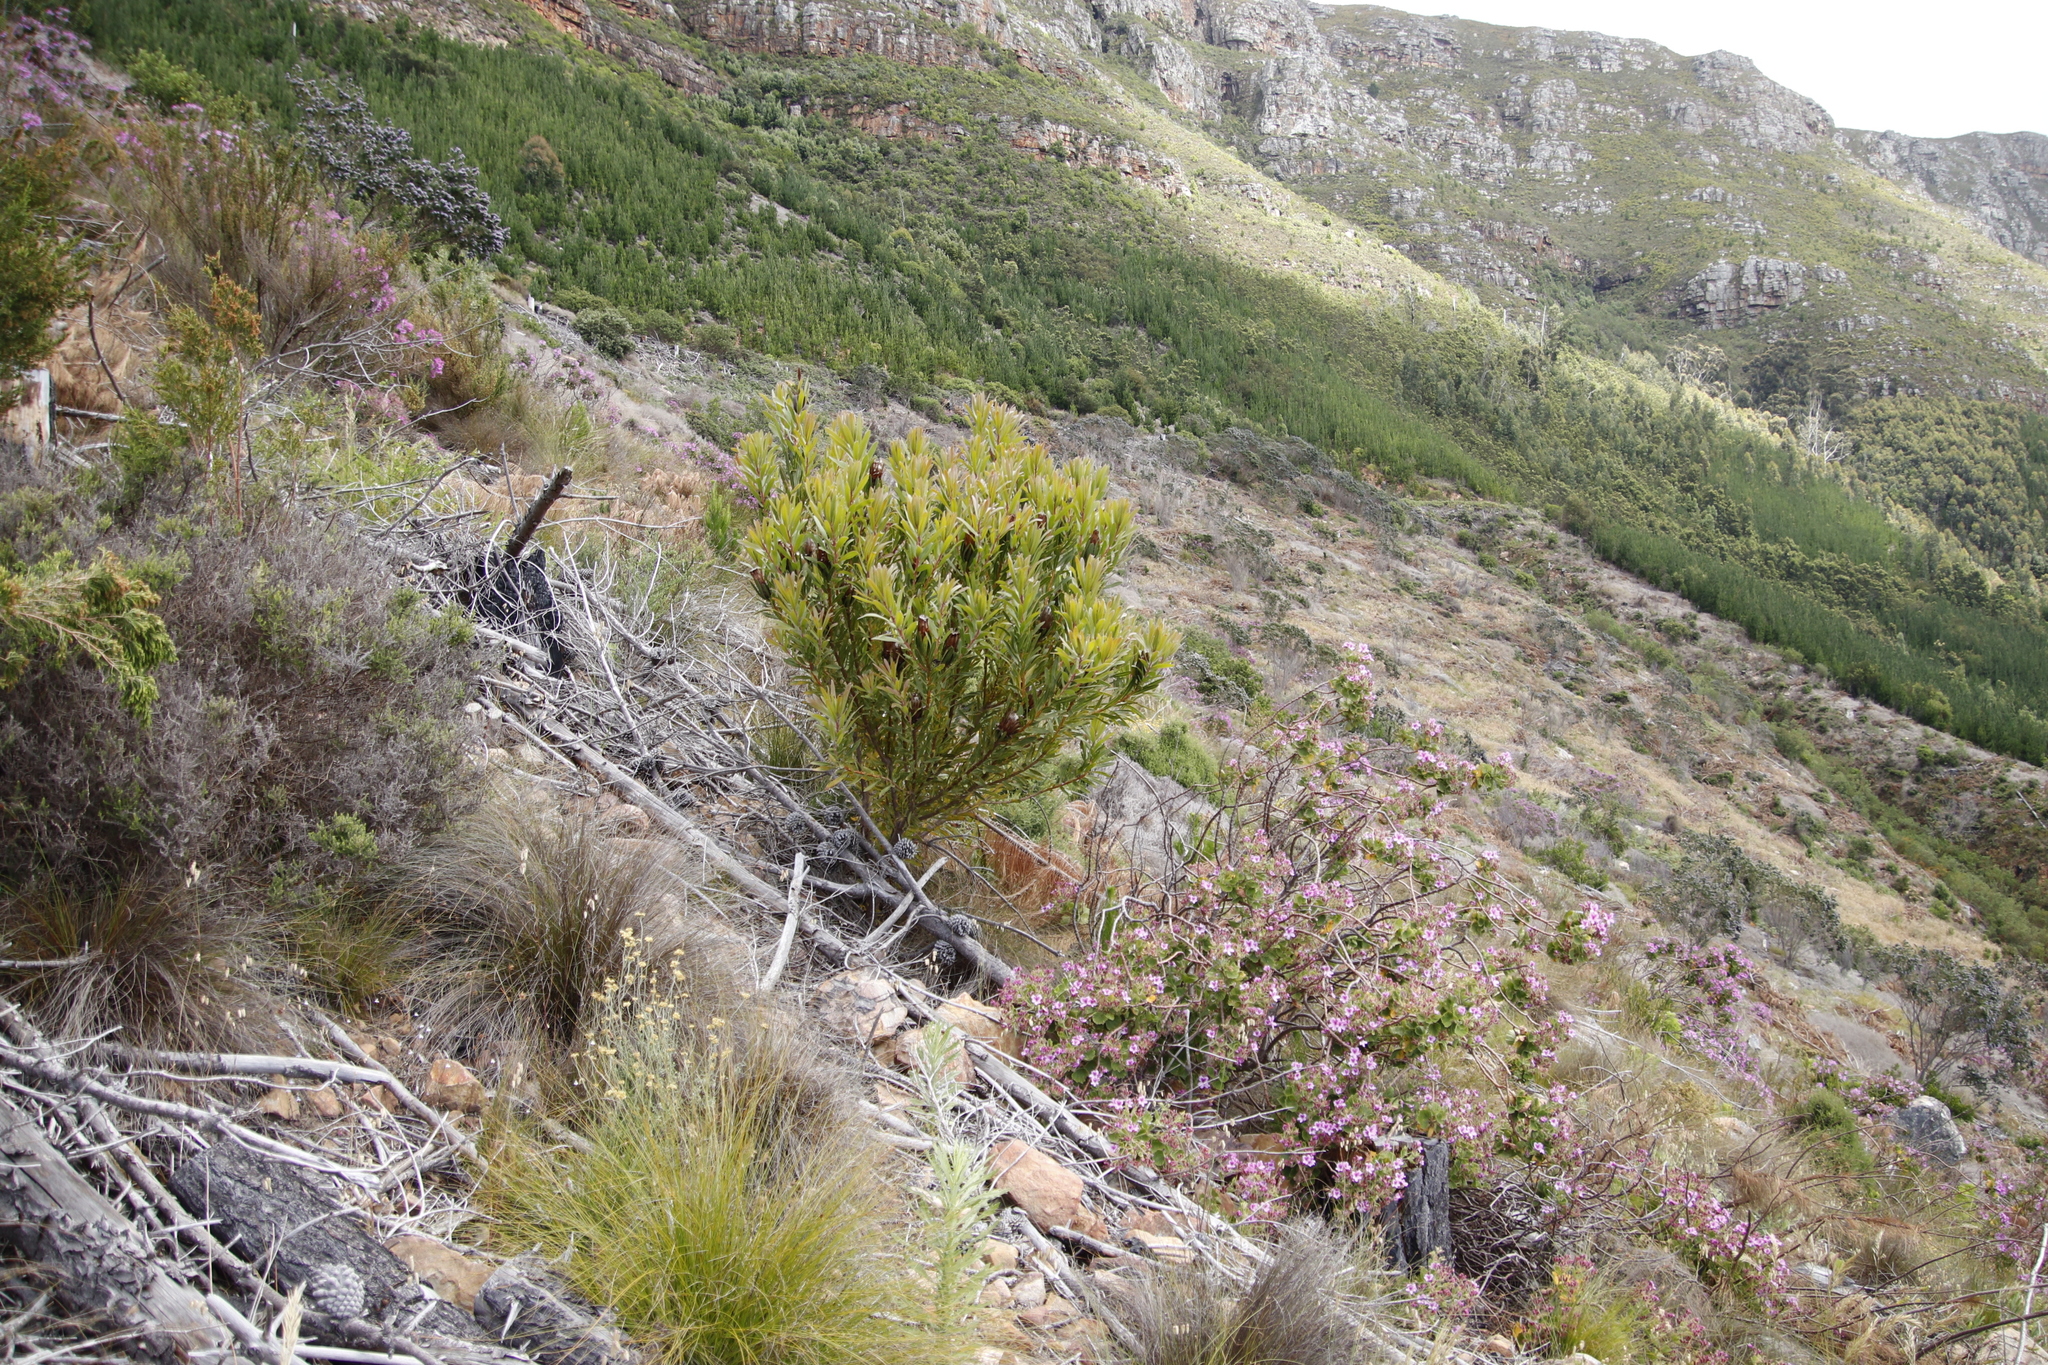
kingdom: Plantae
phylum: Tracheophyta
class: Magnoliopsida
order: Proteales
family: Proteaceae
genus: Protea
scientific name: Protea lepidocarpodendron
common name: Black-bearded protea
